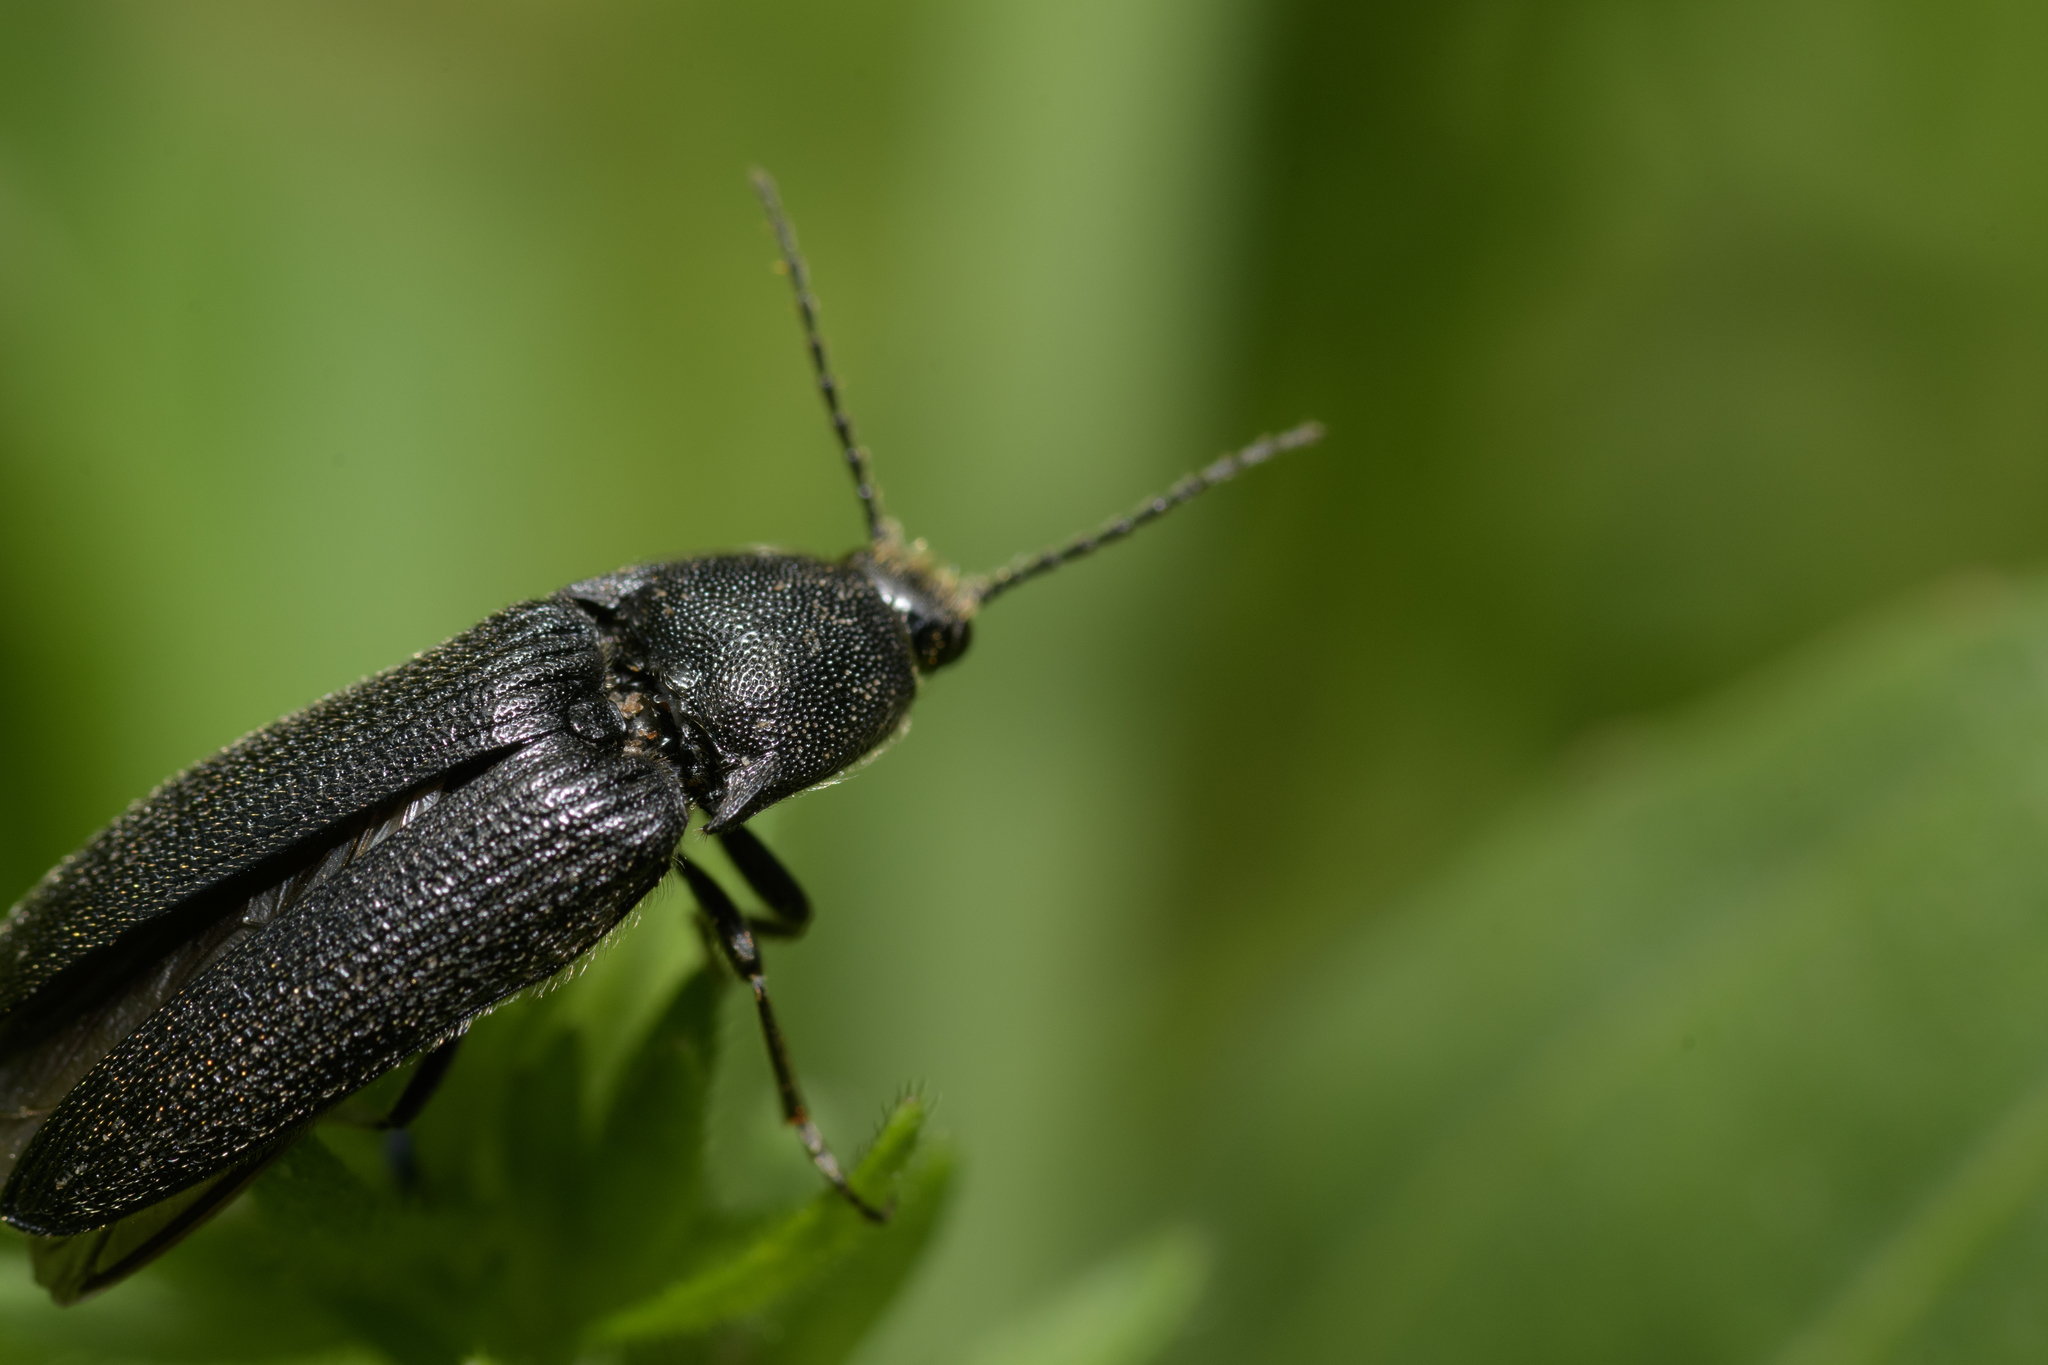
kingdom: Animalia
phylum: Arthropoda
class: Insecta
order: Coleoptera
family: Elateridae
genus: Melanotus
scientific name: Melanotus punctolineatus
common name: Sandwich click beetle
